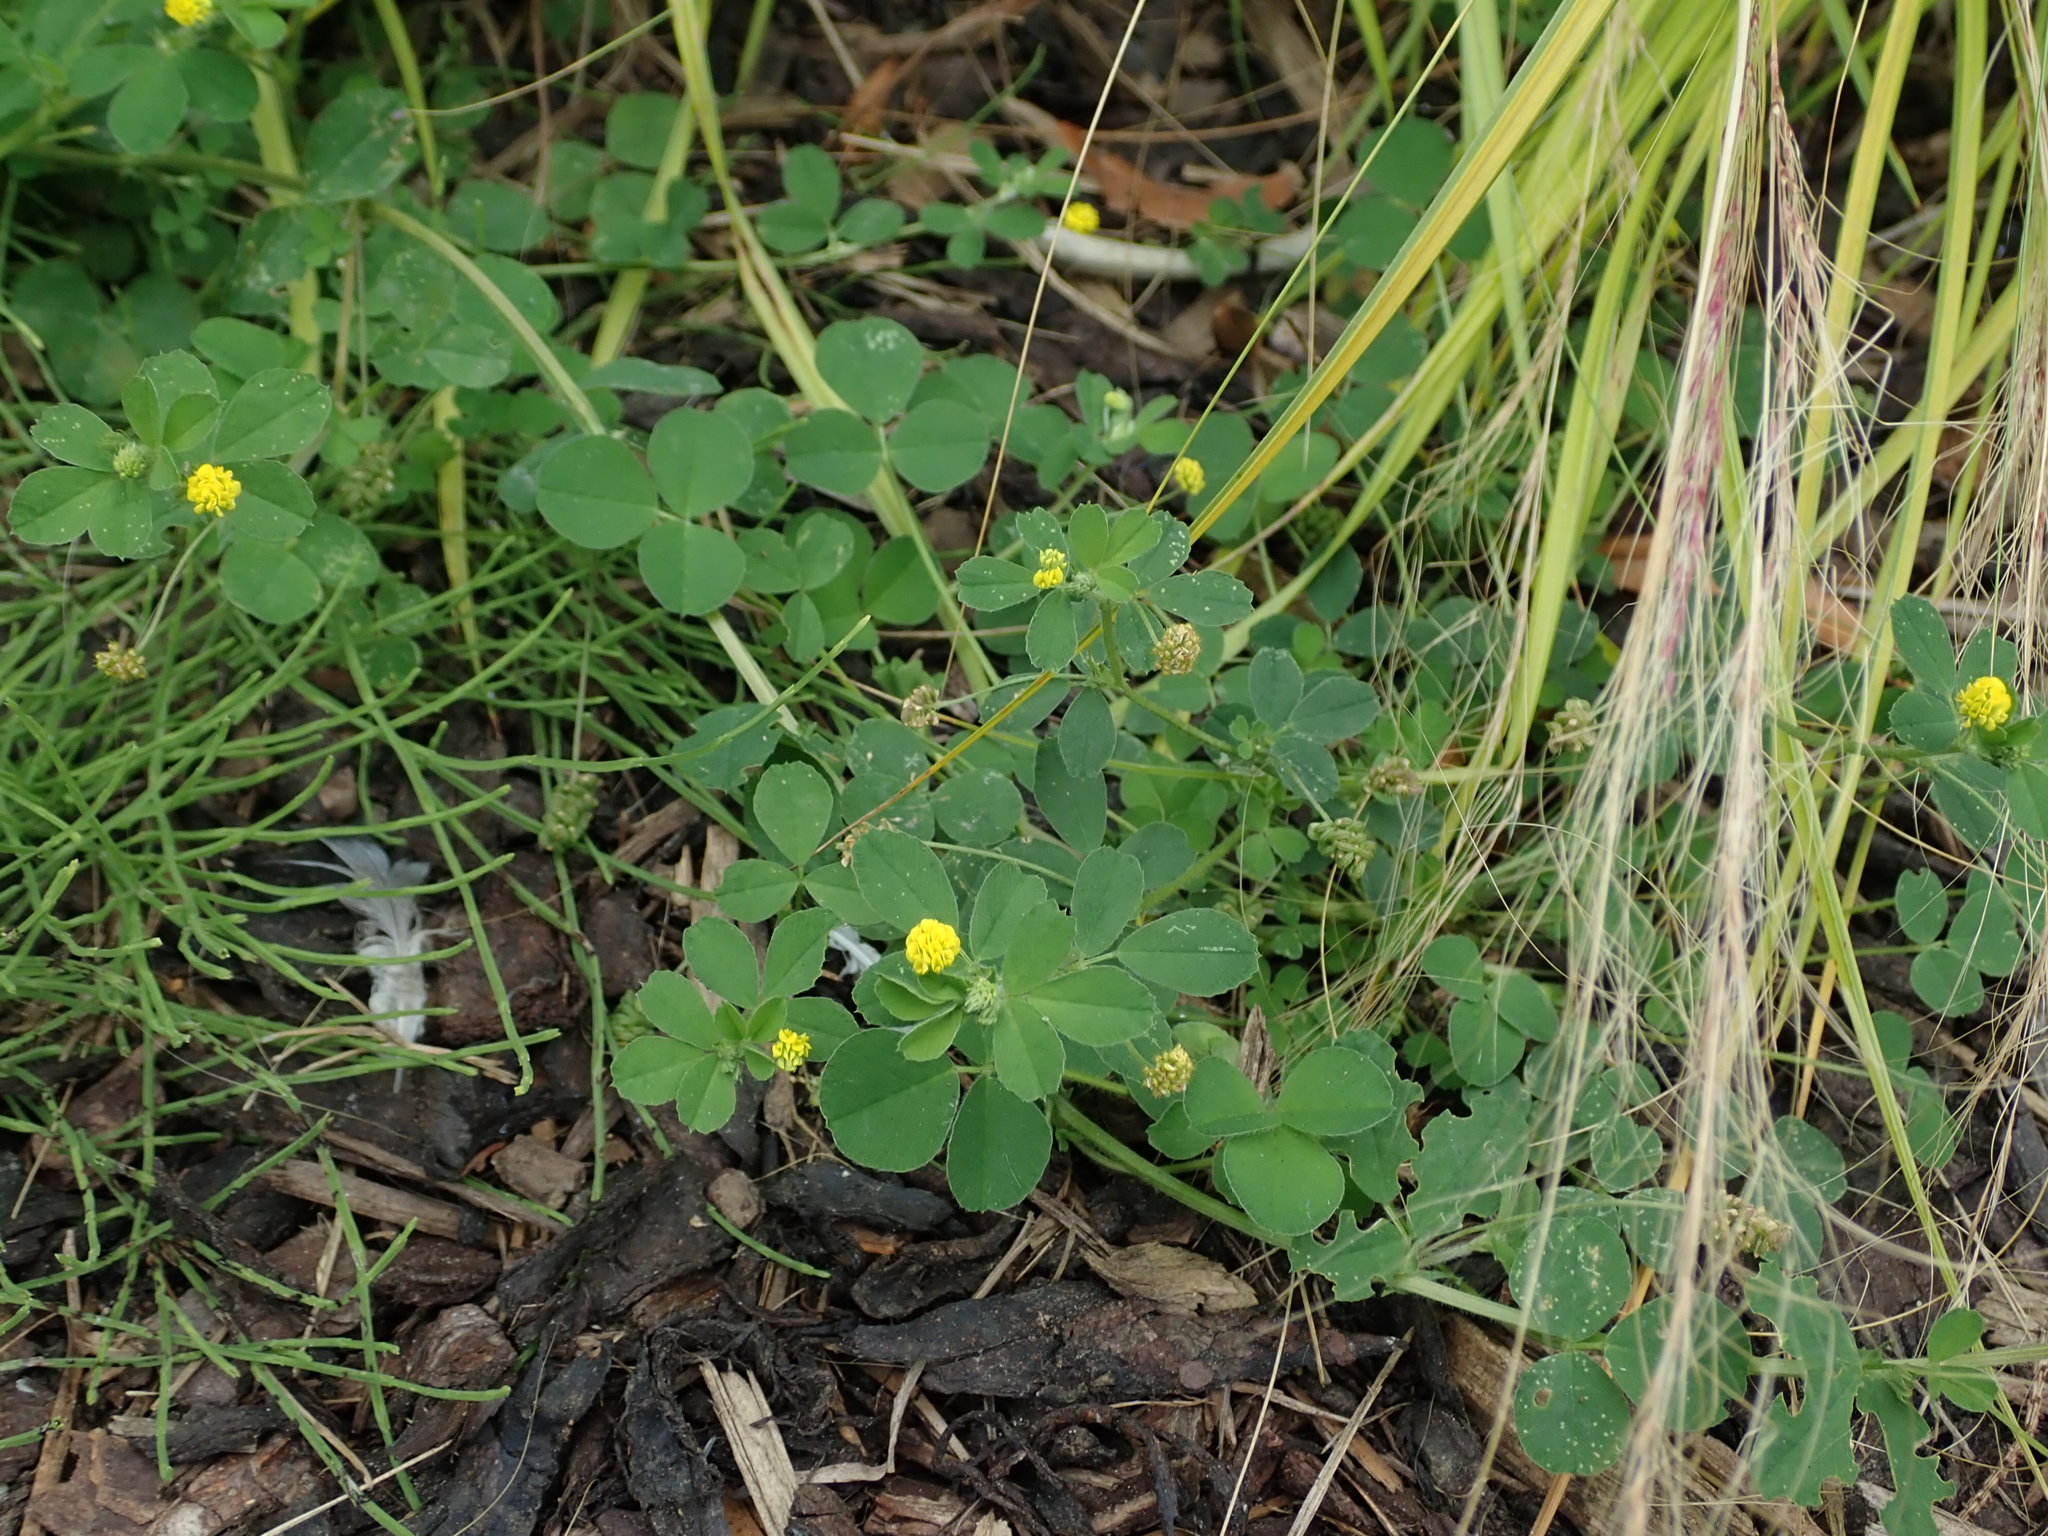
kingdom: Plantae
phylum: Tracheophyta
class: Magnoliopsida
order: Fabales
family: Fabaceae
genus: Medicago
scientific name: Medicago lupulina
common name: Black medick
